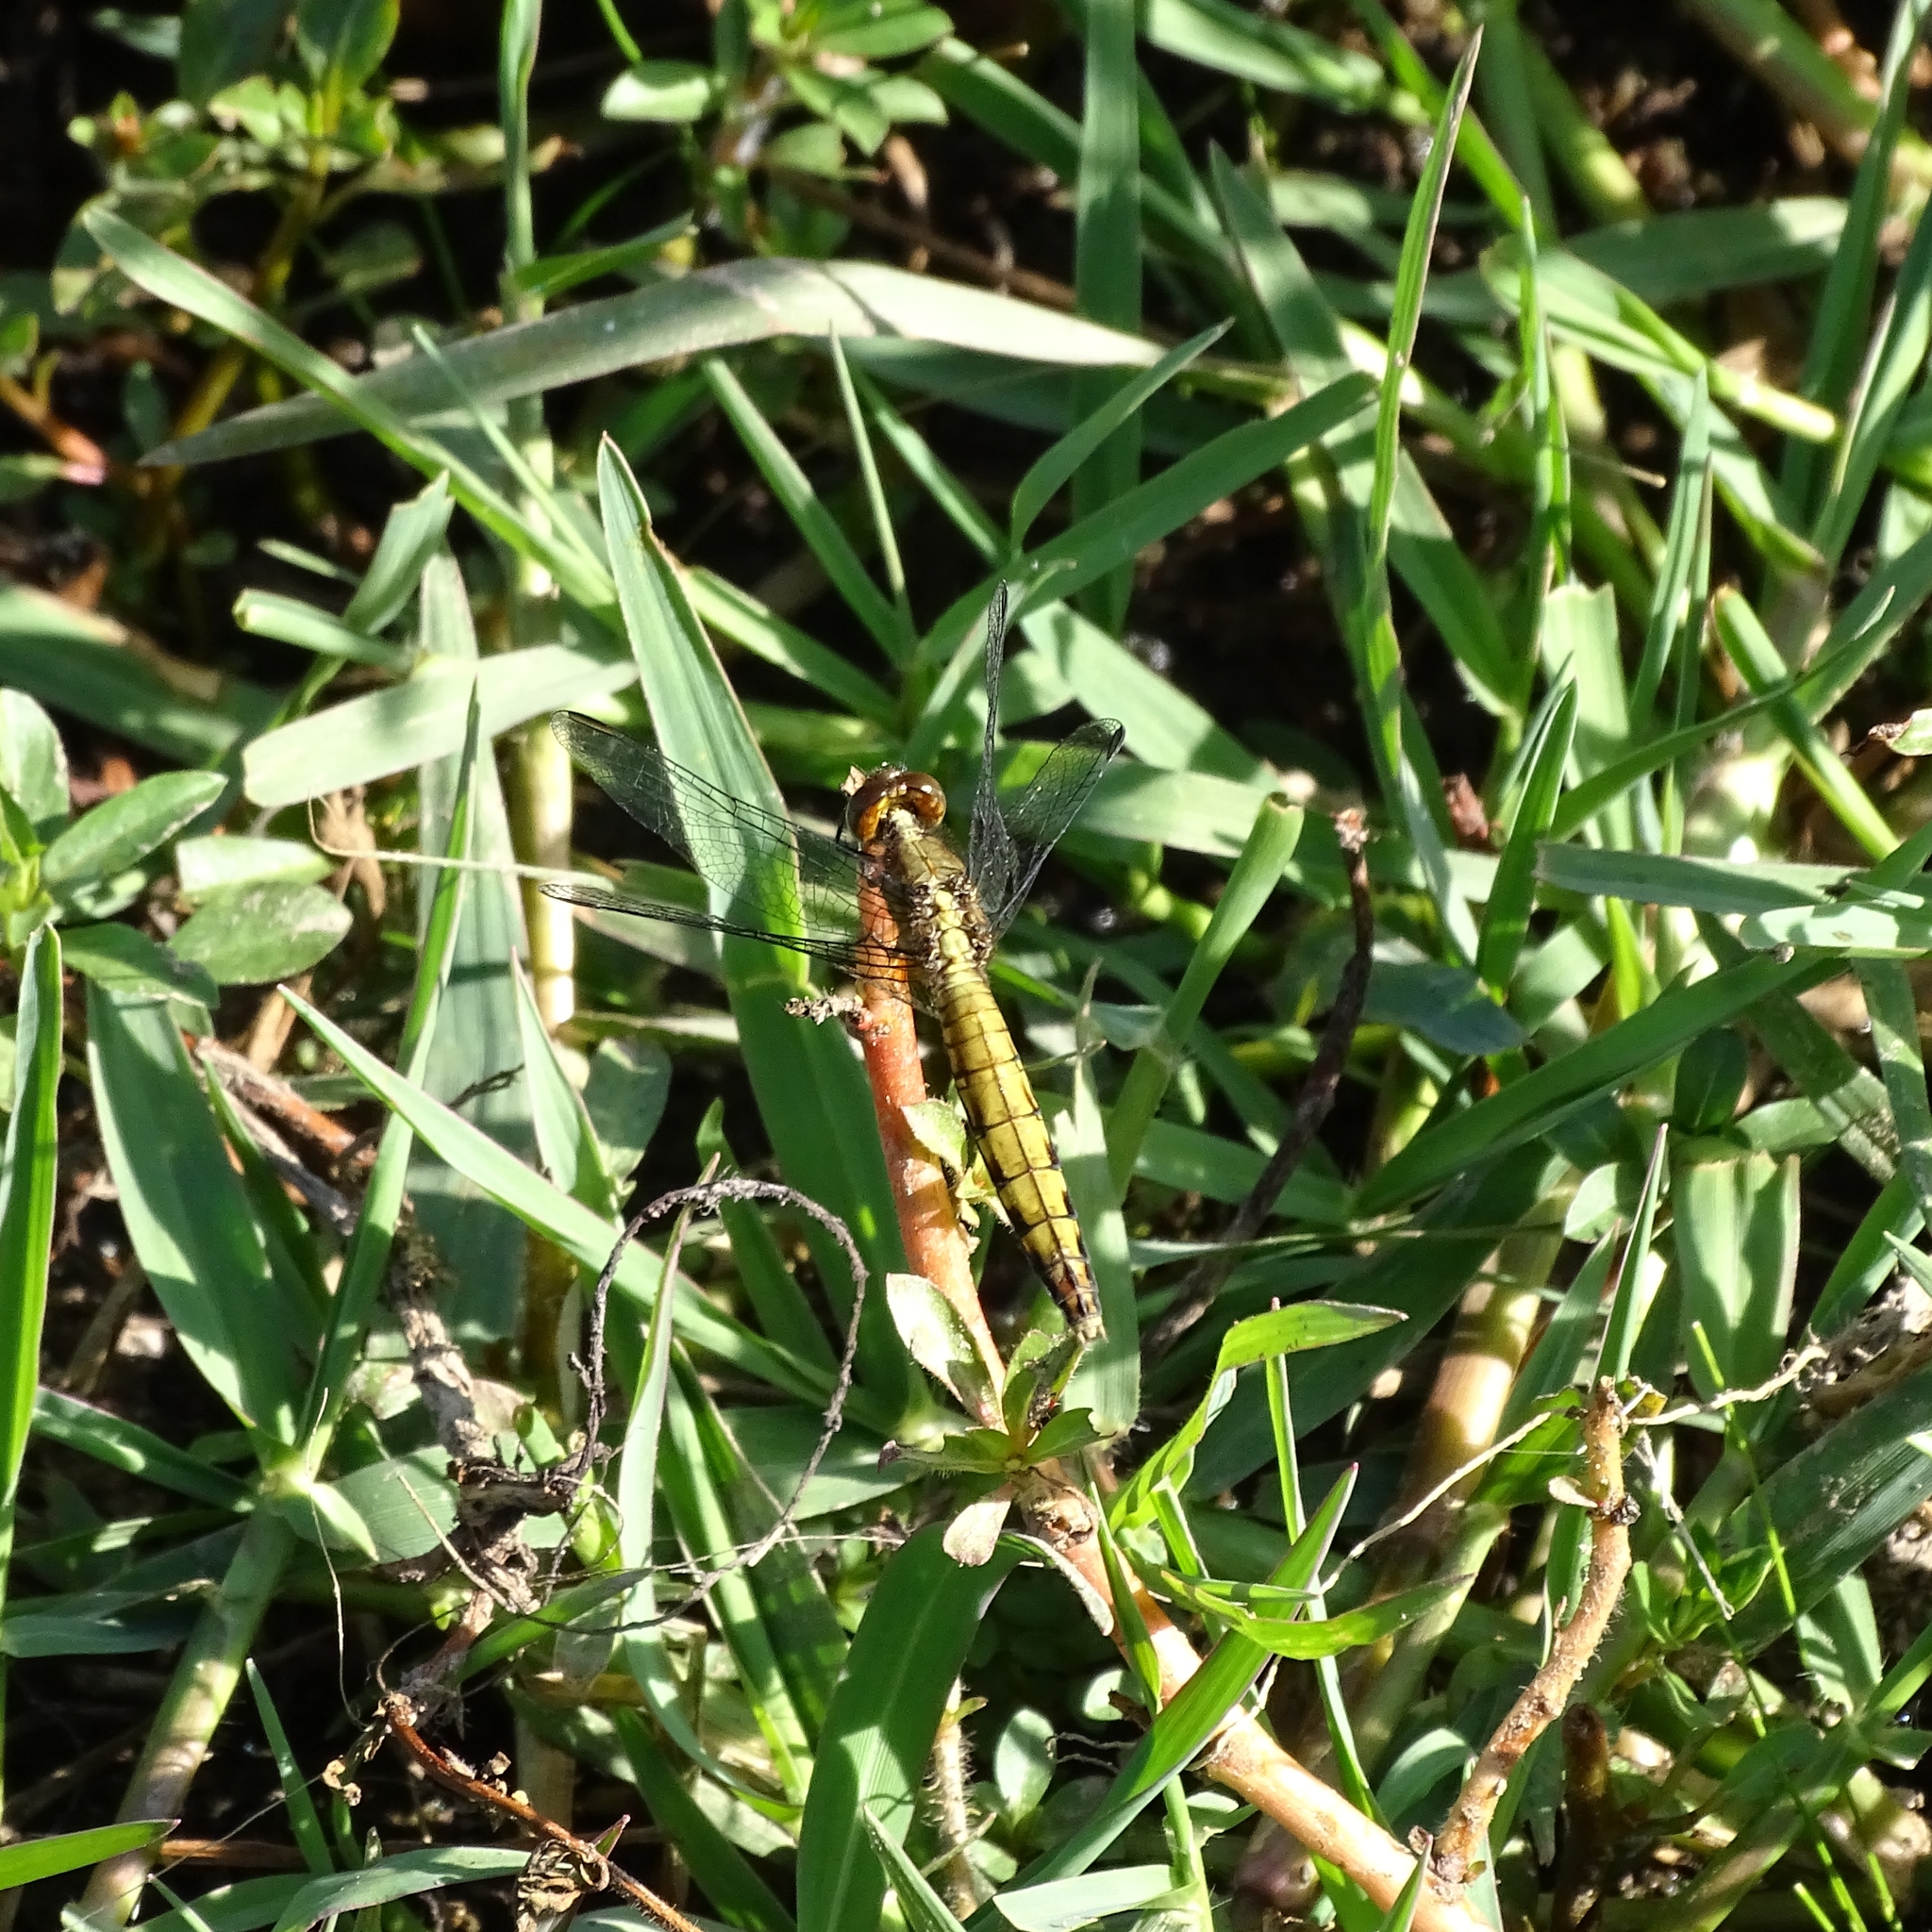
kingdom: Animalia
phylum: Arthropoda
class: Insecta
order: Odonata
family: Libellulidae
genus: Erythrodiplax
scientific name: Erythrodiplax connata
